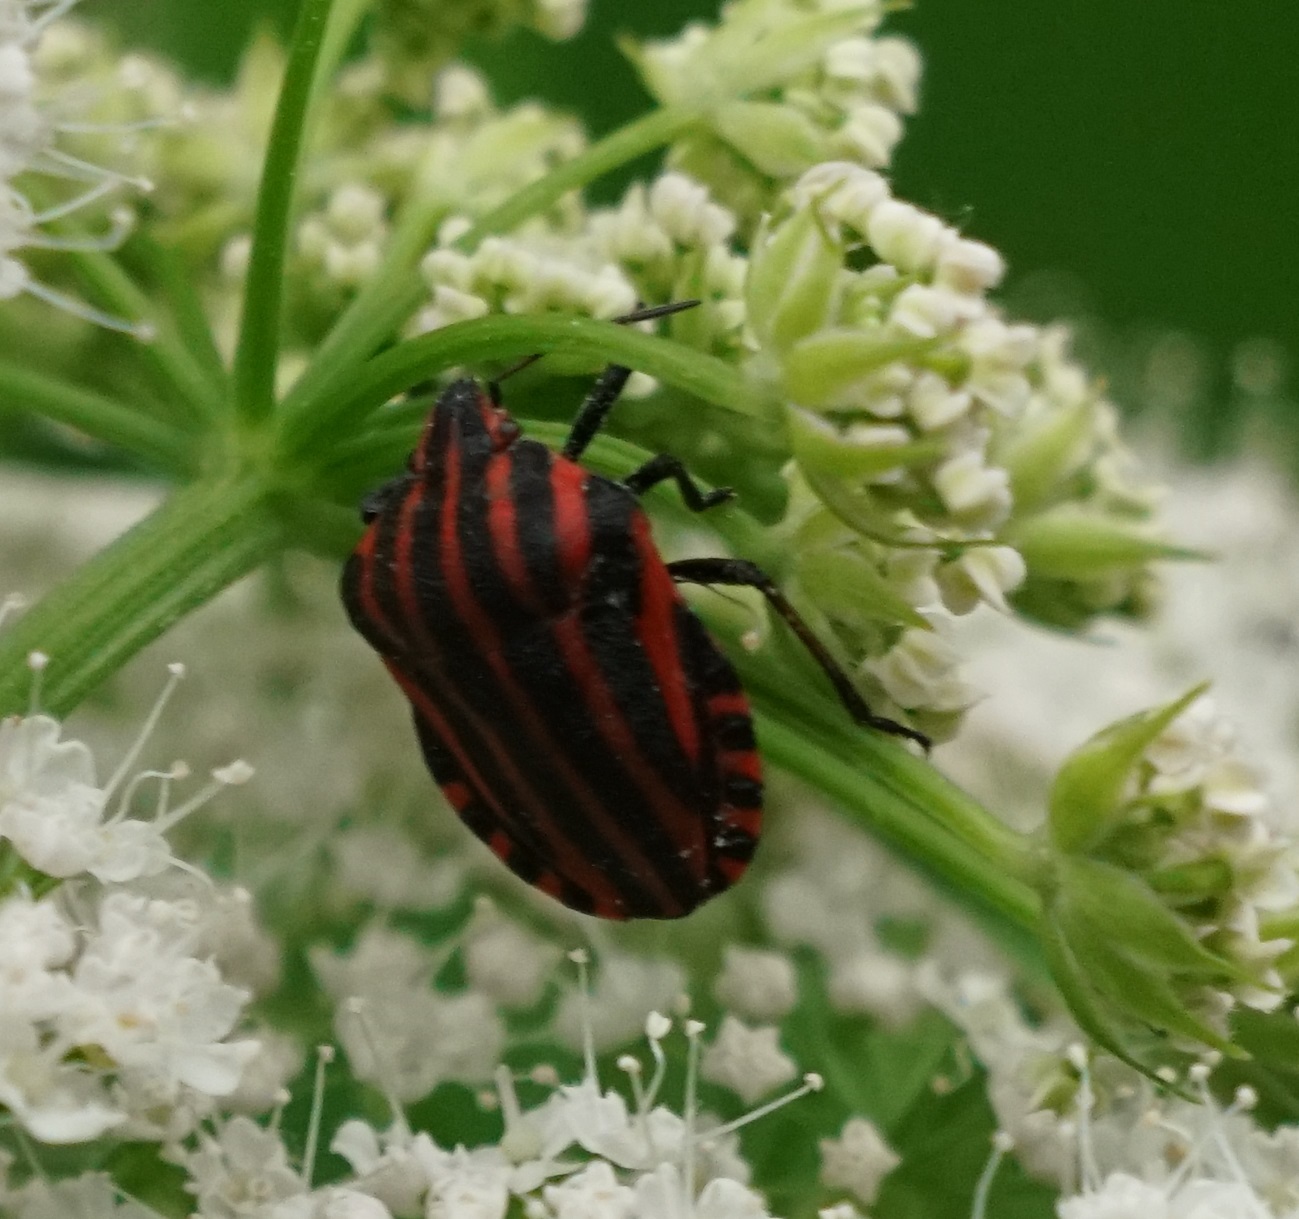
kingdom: Animalia
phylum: Arthropoda
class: Insecta
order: Hemiptera
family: Pentatomidae
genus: Graphosoma
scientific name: Graphosoma italicum
